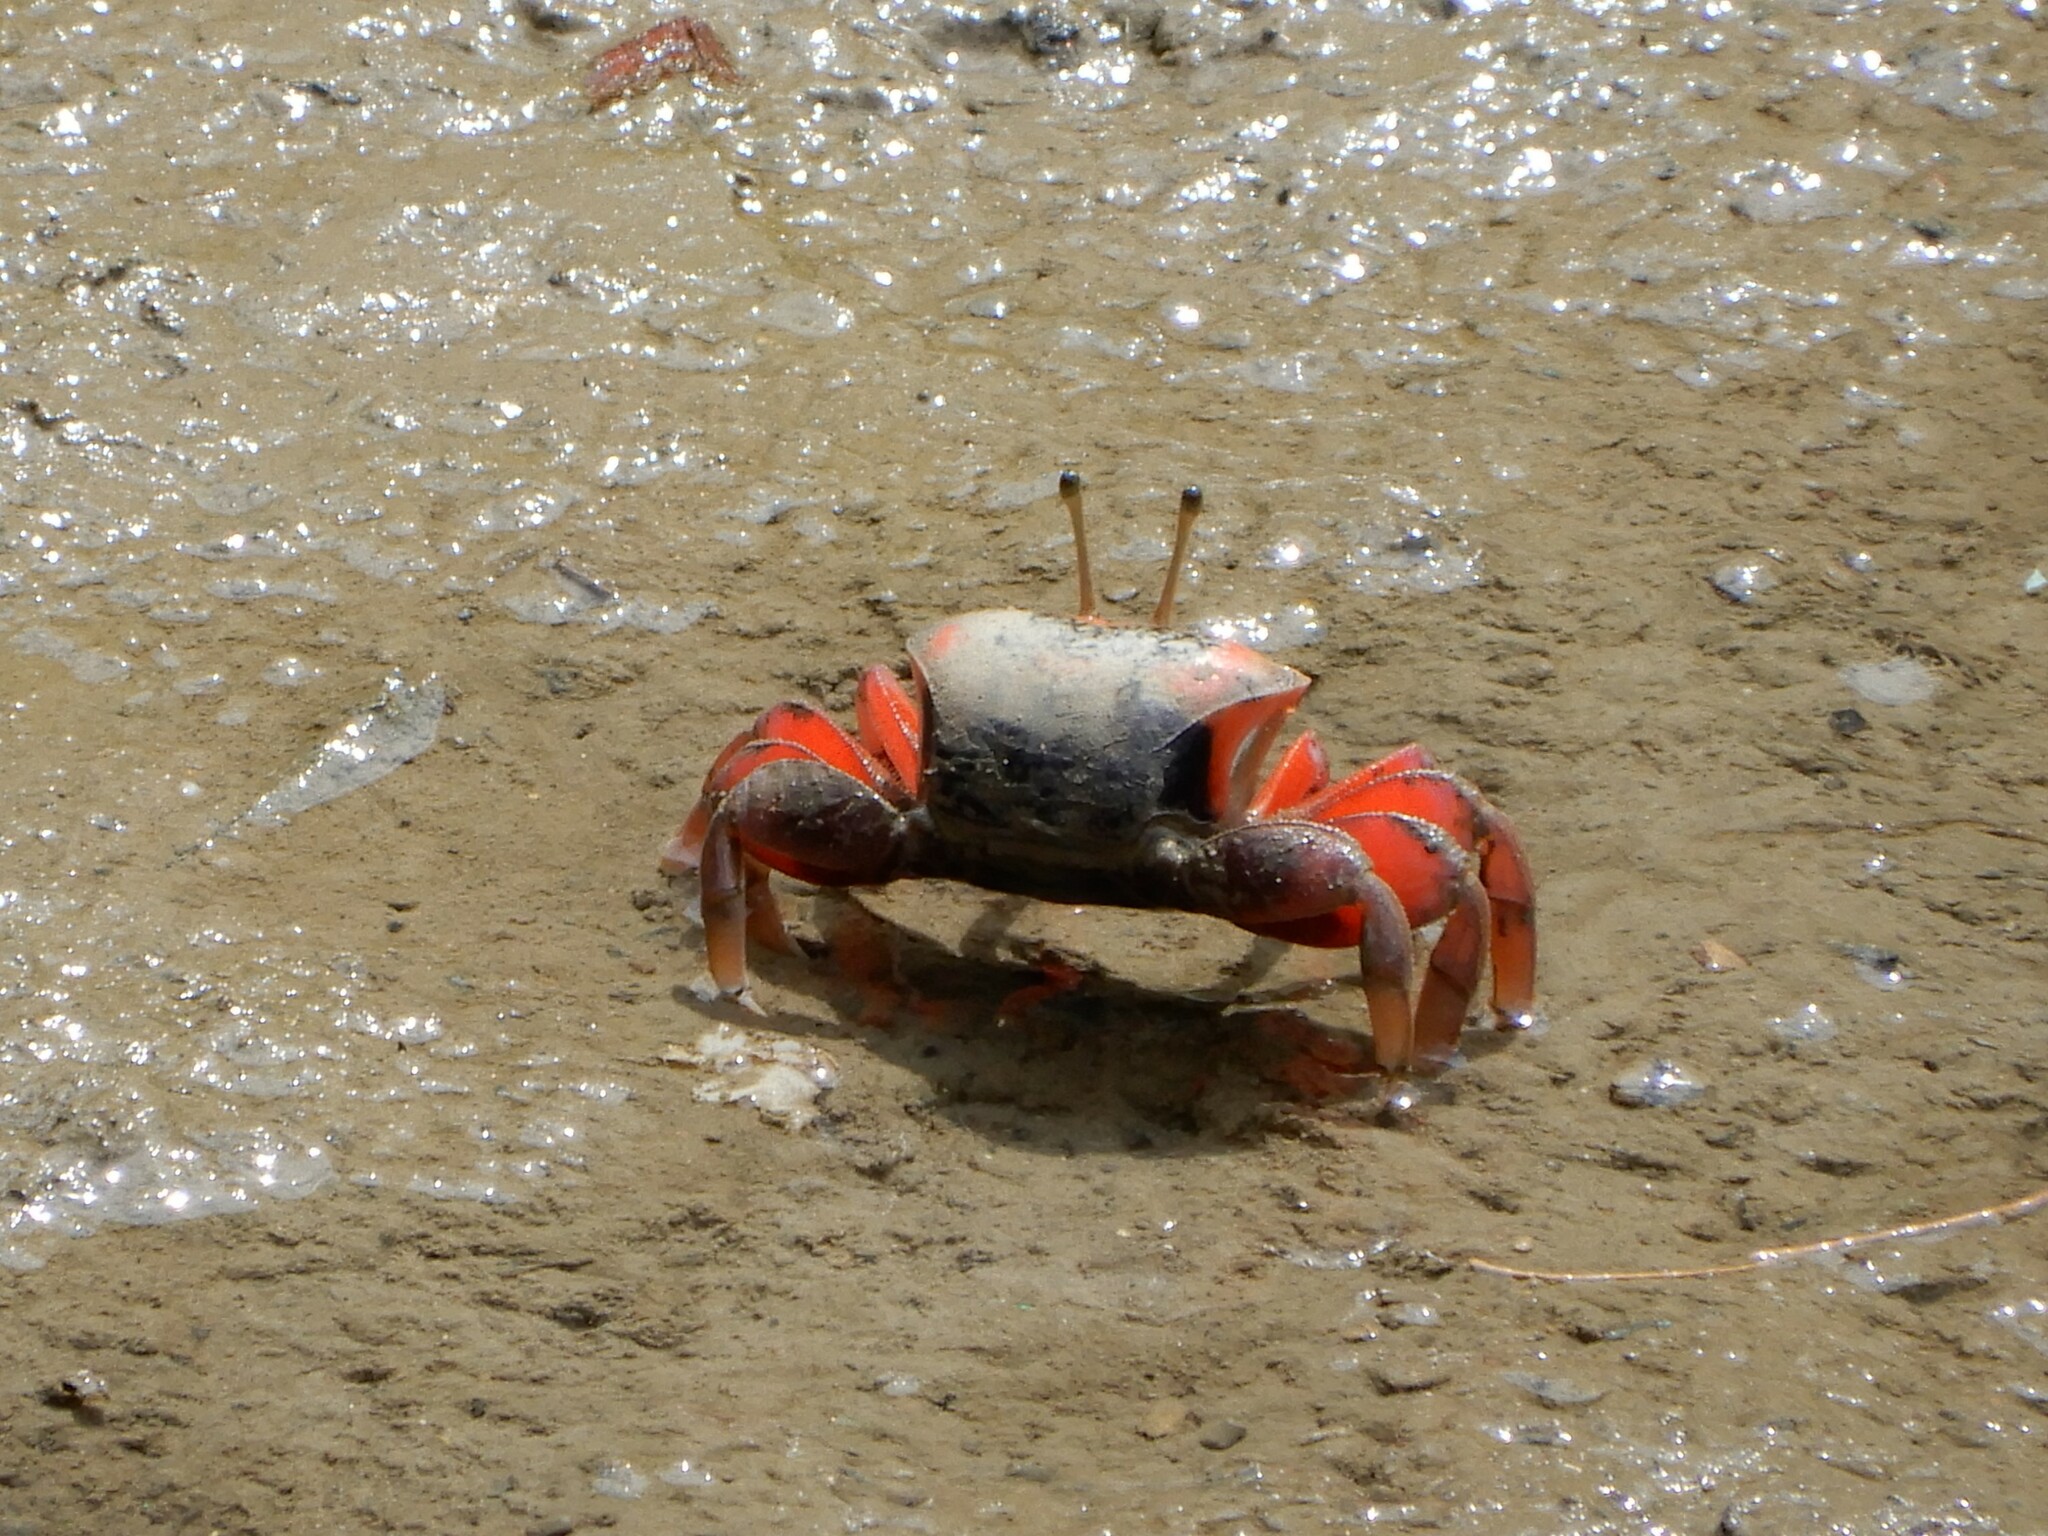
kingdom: Animalia
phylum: Arthropoda
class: Malacostraca
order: Decapoda
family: Ocypodidae
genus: Tubuca
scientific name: Tubuca arcuata
